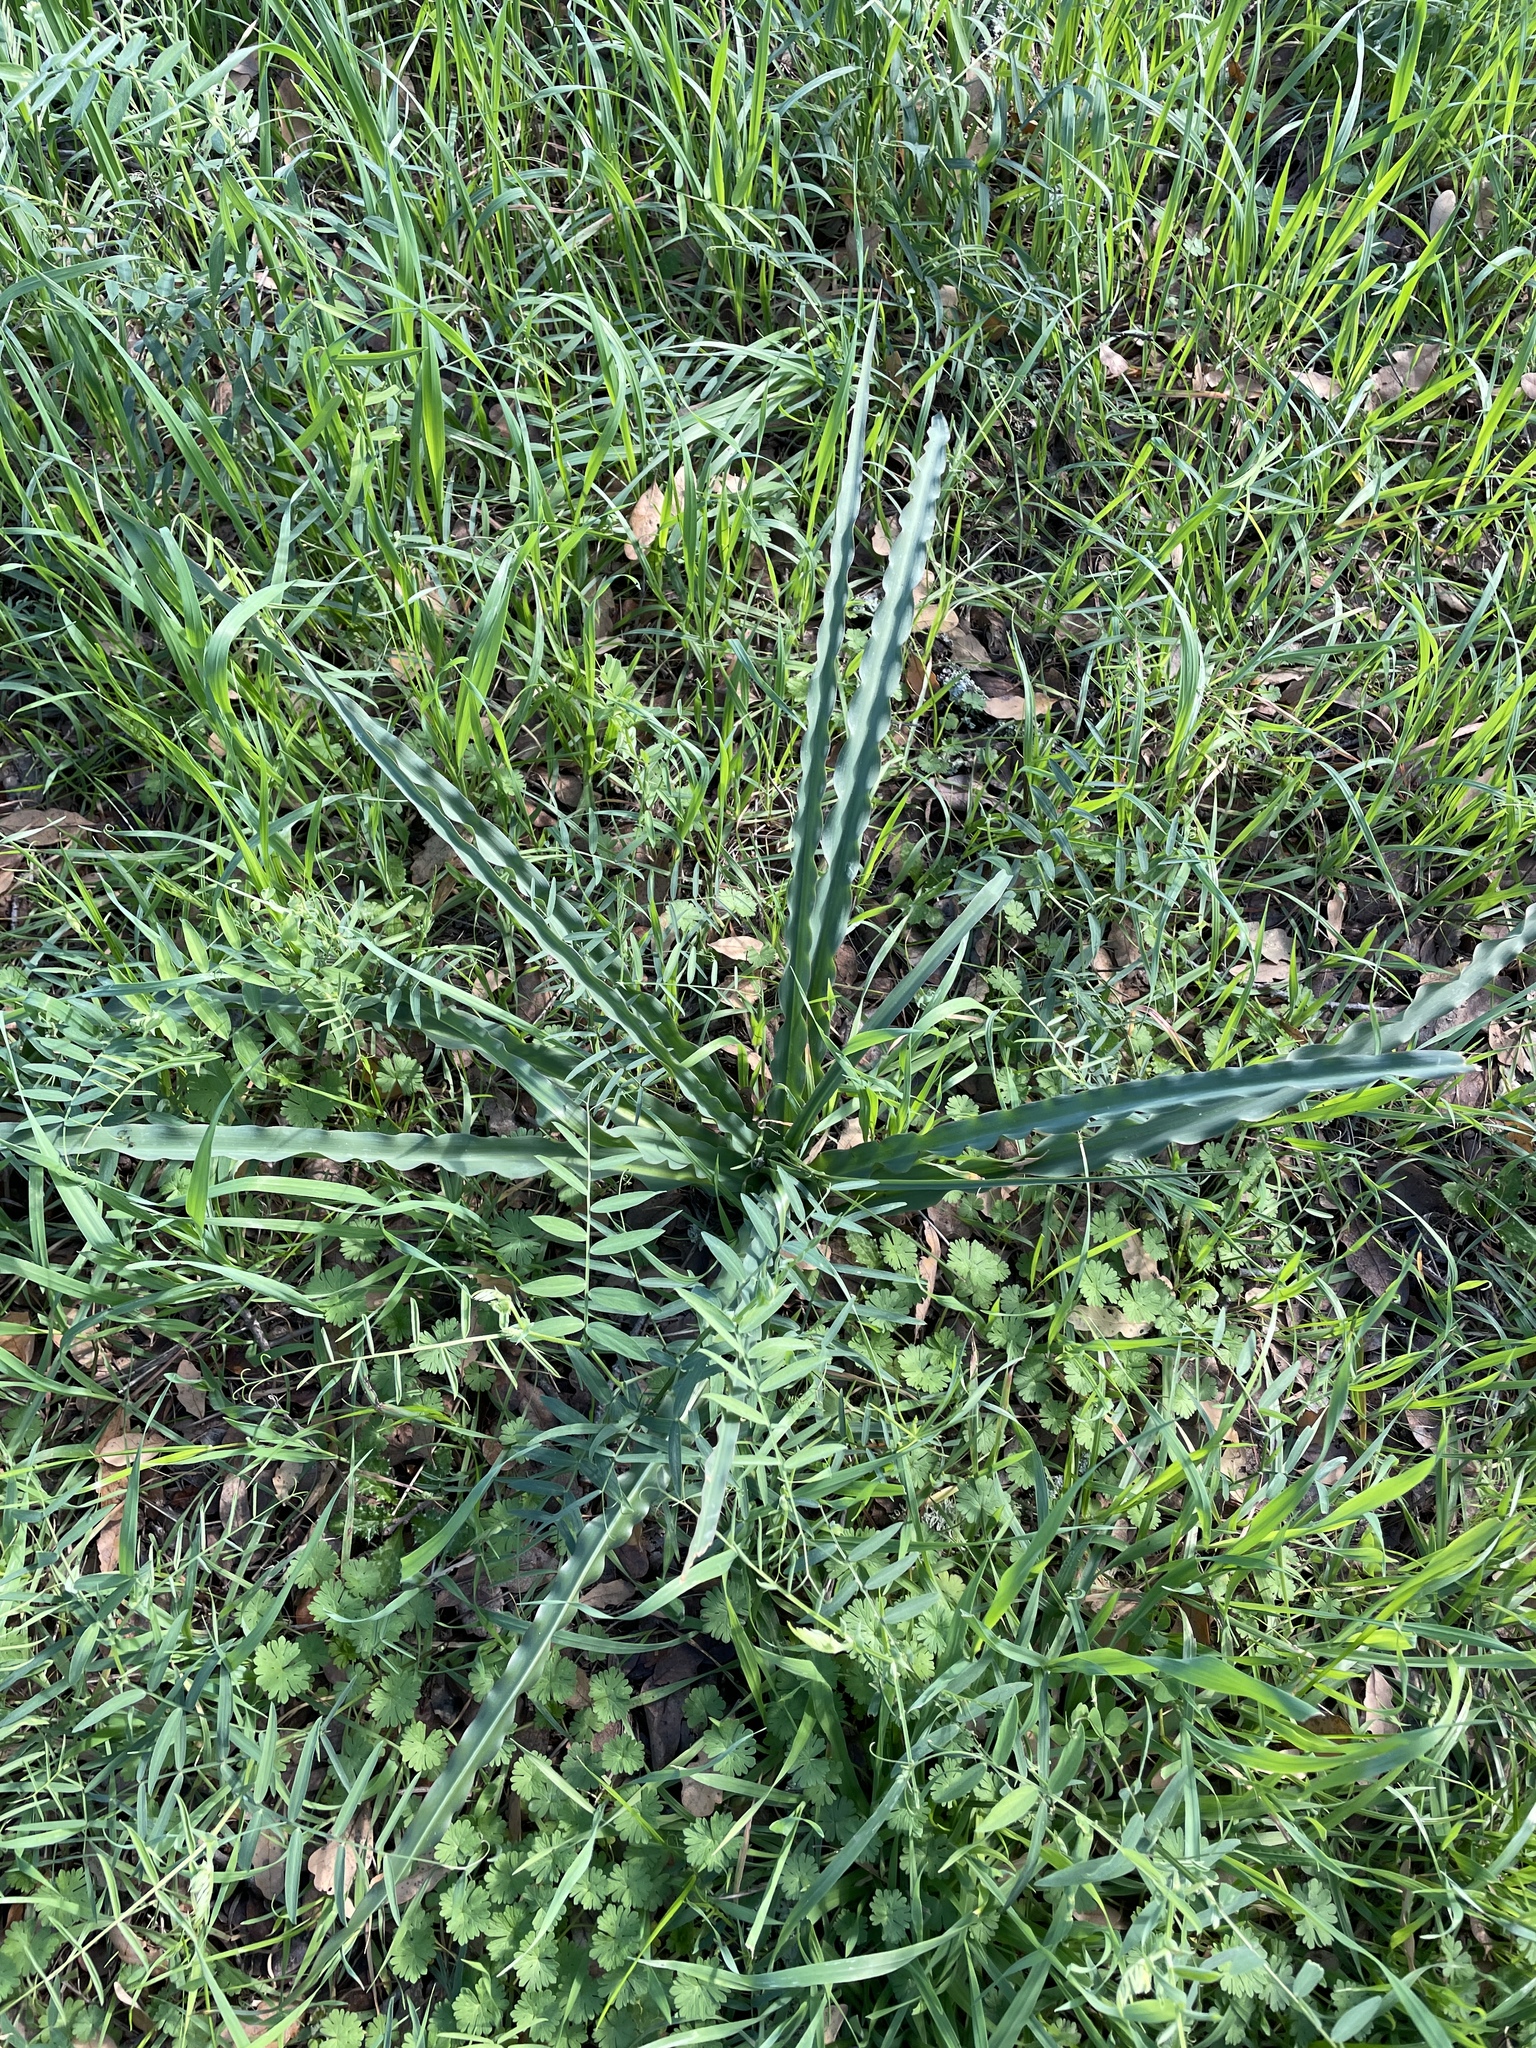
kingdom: Plantae
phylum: Tracheophyta
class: Liliopsida
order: Asparagales
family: Asparagaceae
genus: Chlorogalum
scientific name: Chlorogalum pomeridianum
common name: Amole
